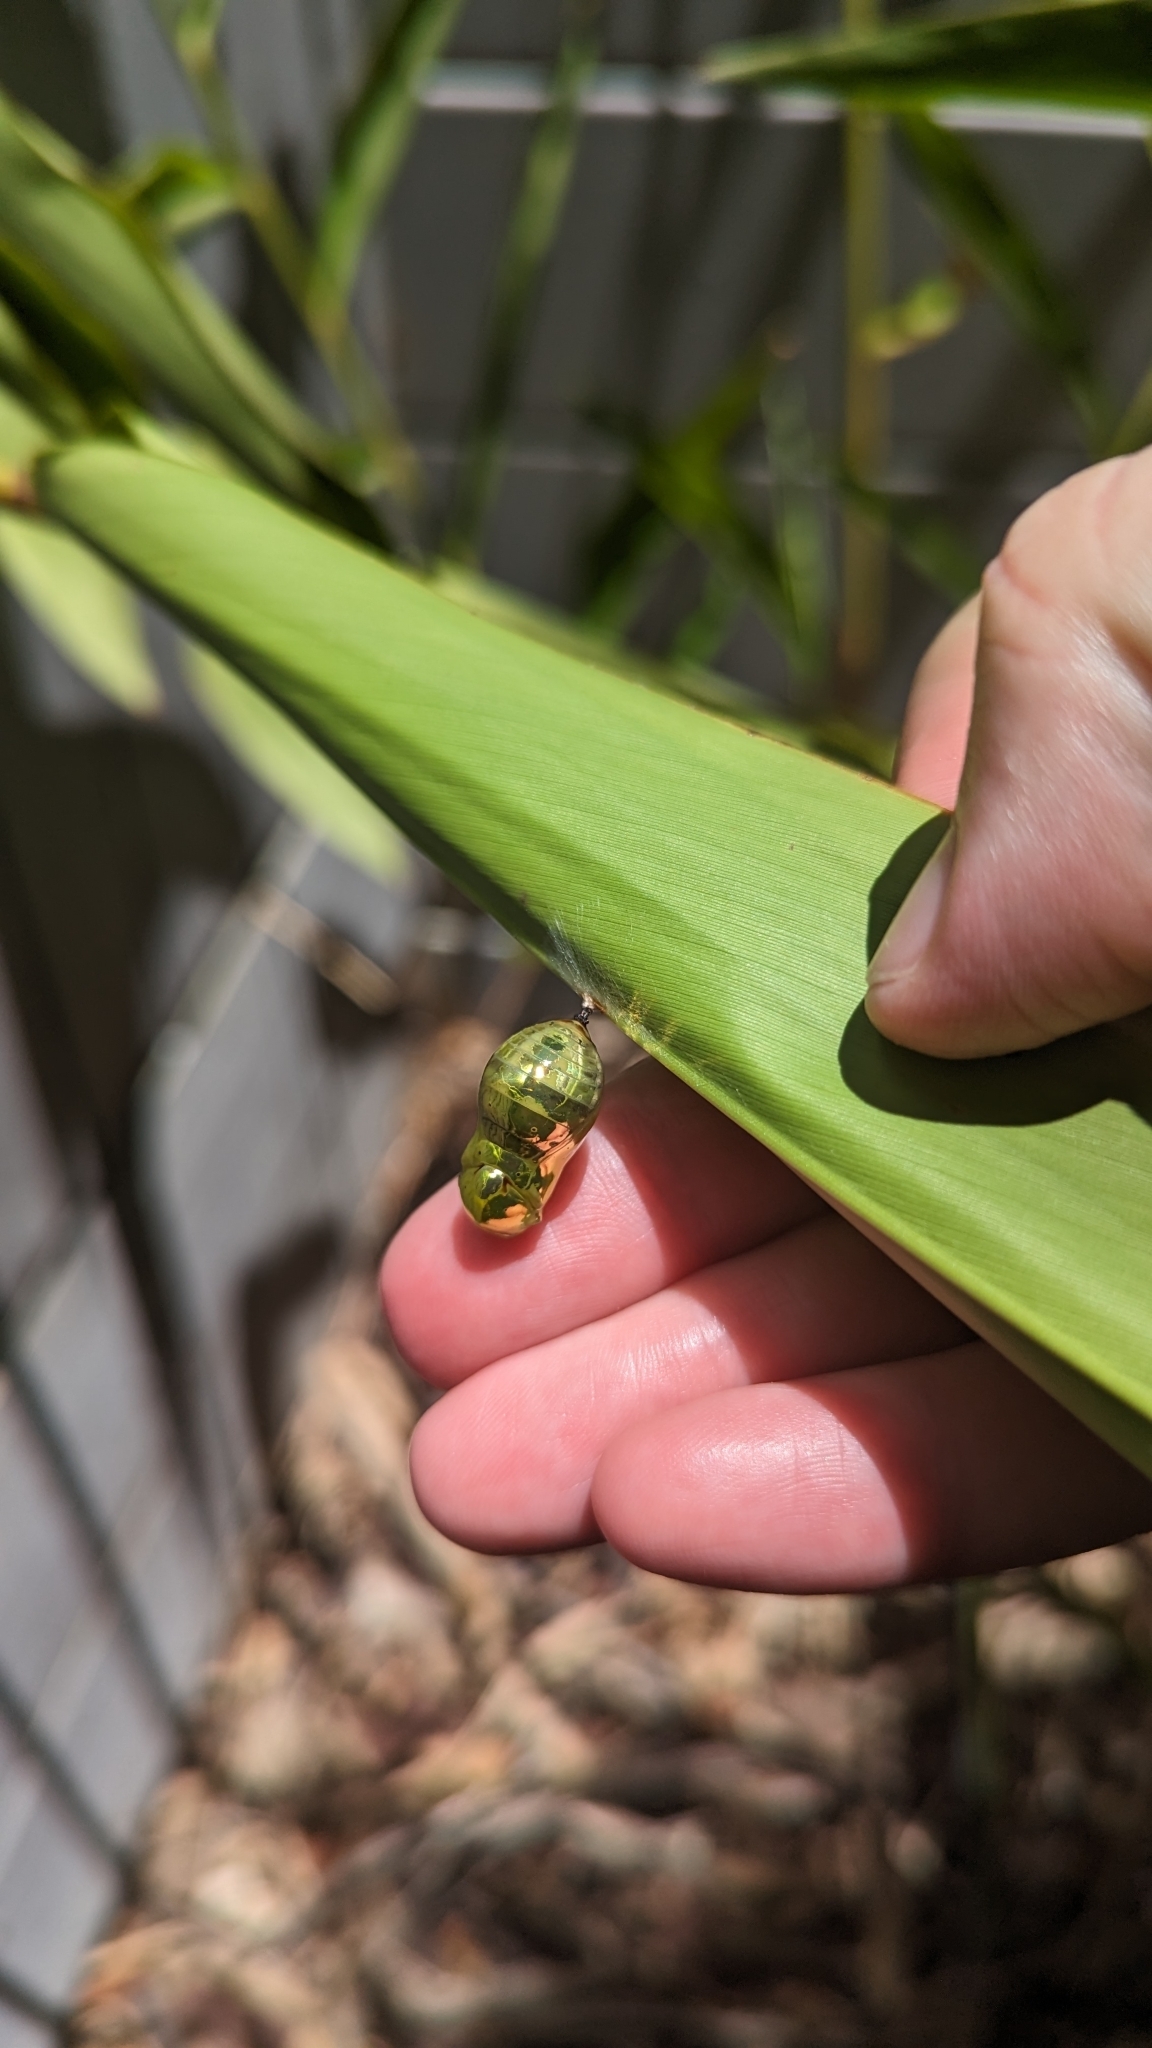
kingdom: Animalia
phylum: Arthropoda
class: Insecta
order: Lepidoptera
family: Nymphalidae
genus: Euploea
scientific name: Euploea core
